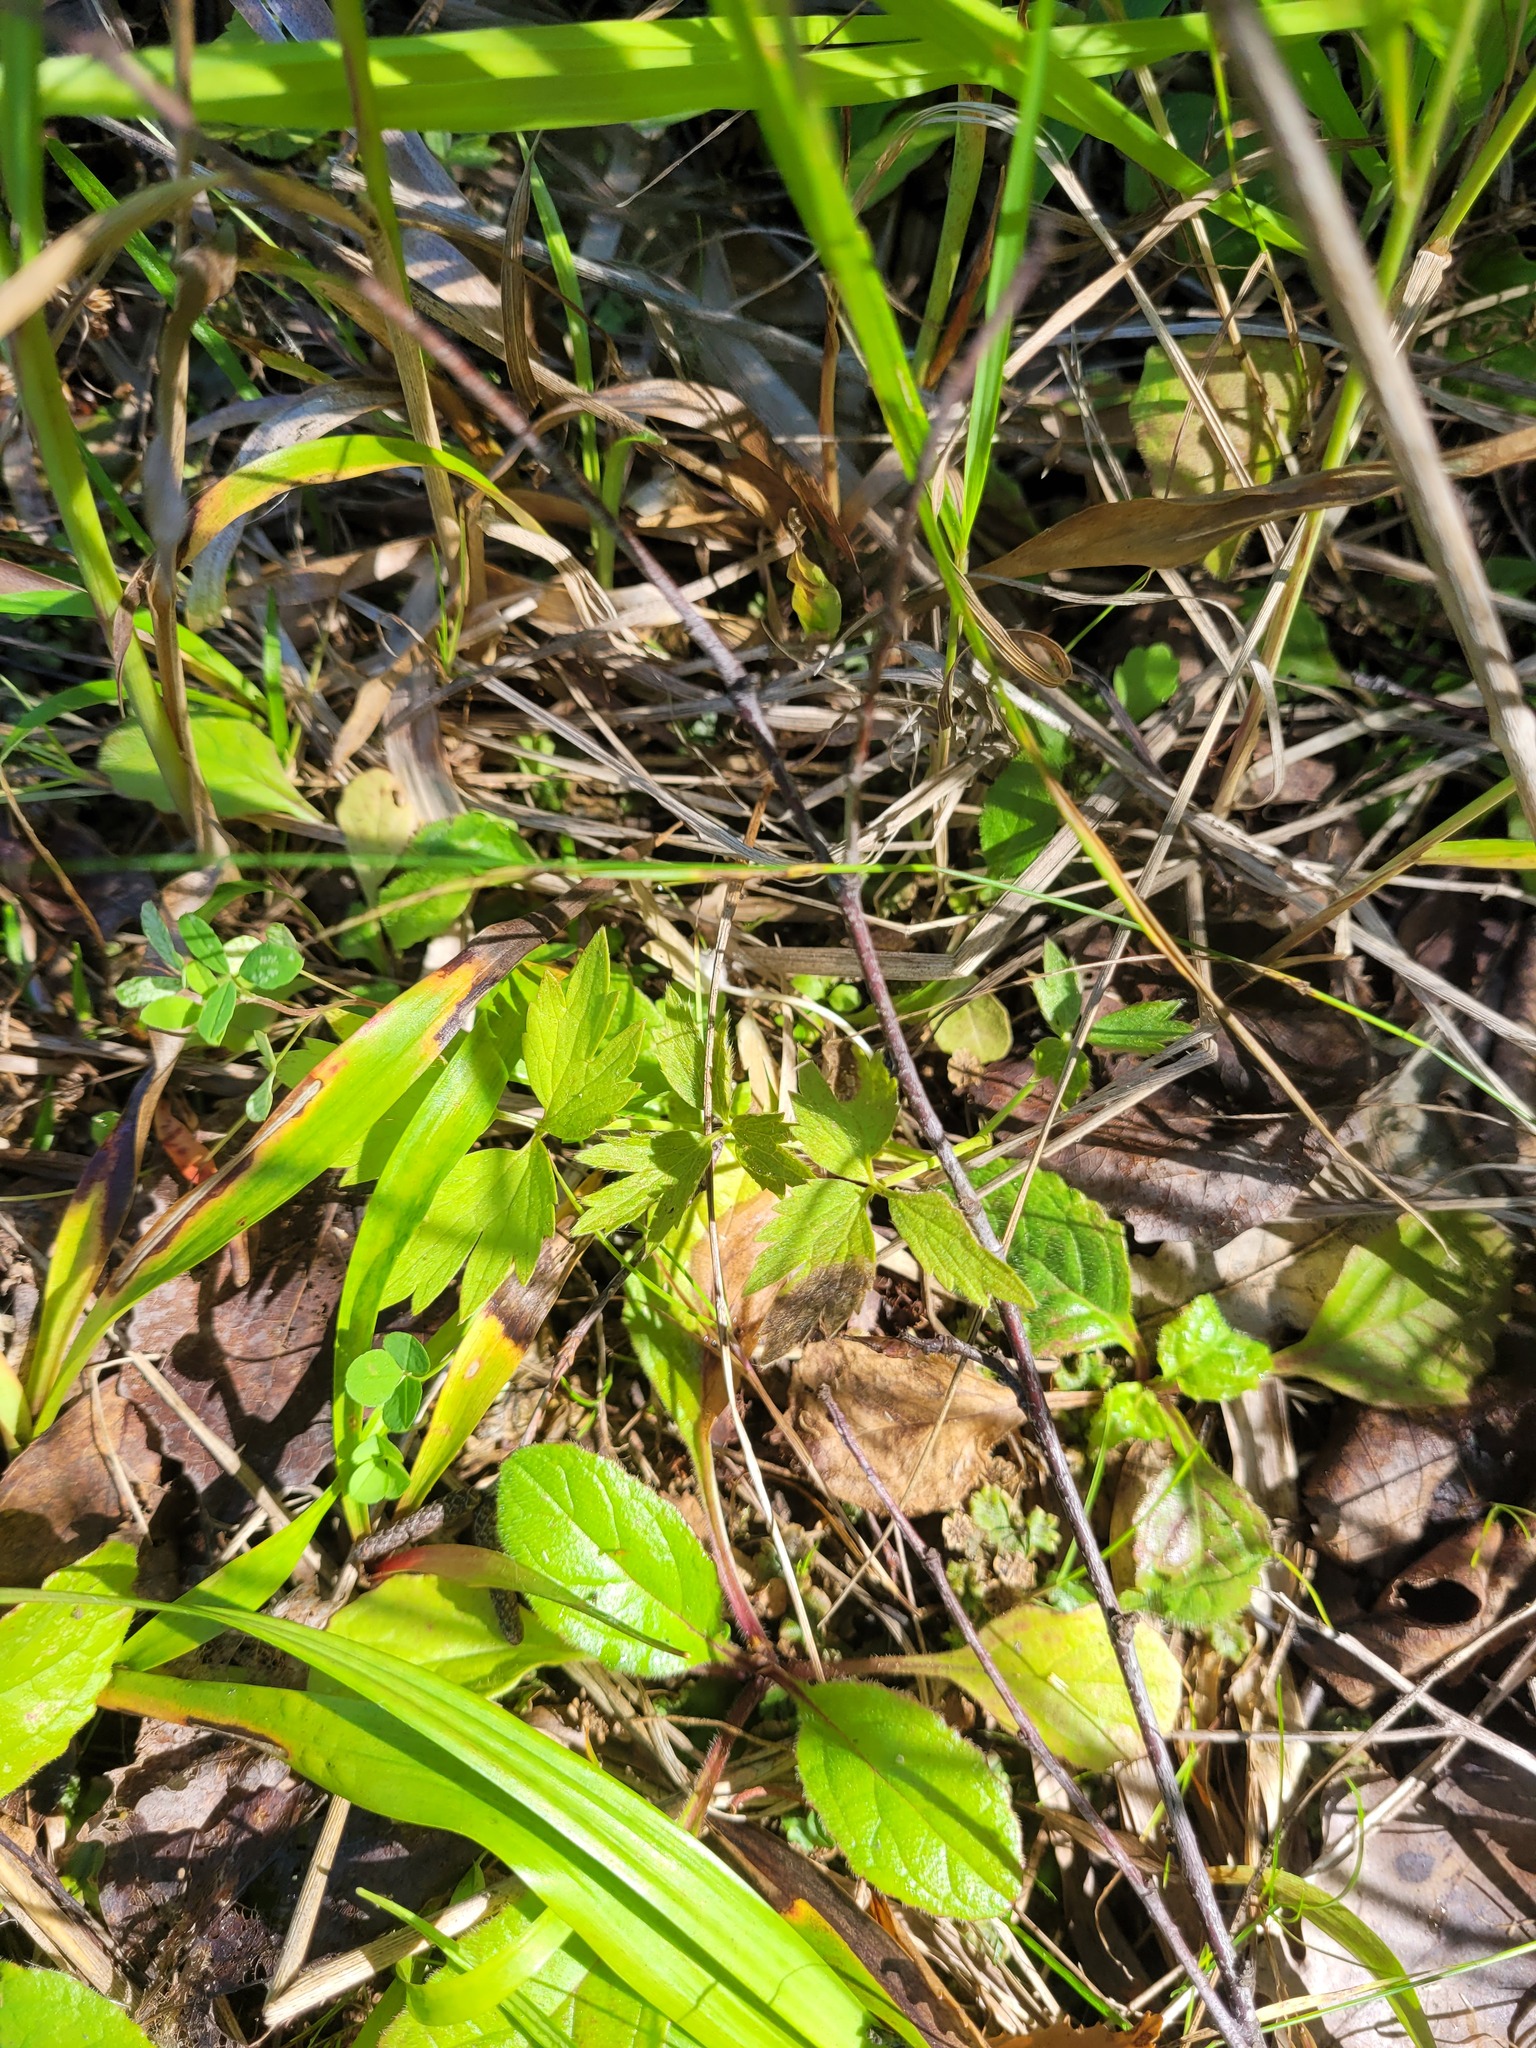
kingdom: Plantae
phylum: Tracheophyta
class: Magnoliopsida
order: Ranunculales
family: Ranunculaceae
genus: Ranunculus
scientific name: Ranunculus repens
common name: Creeping buttercup
